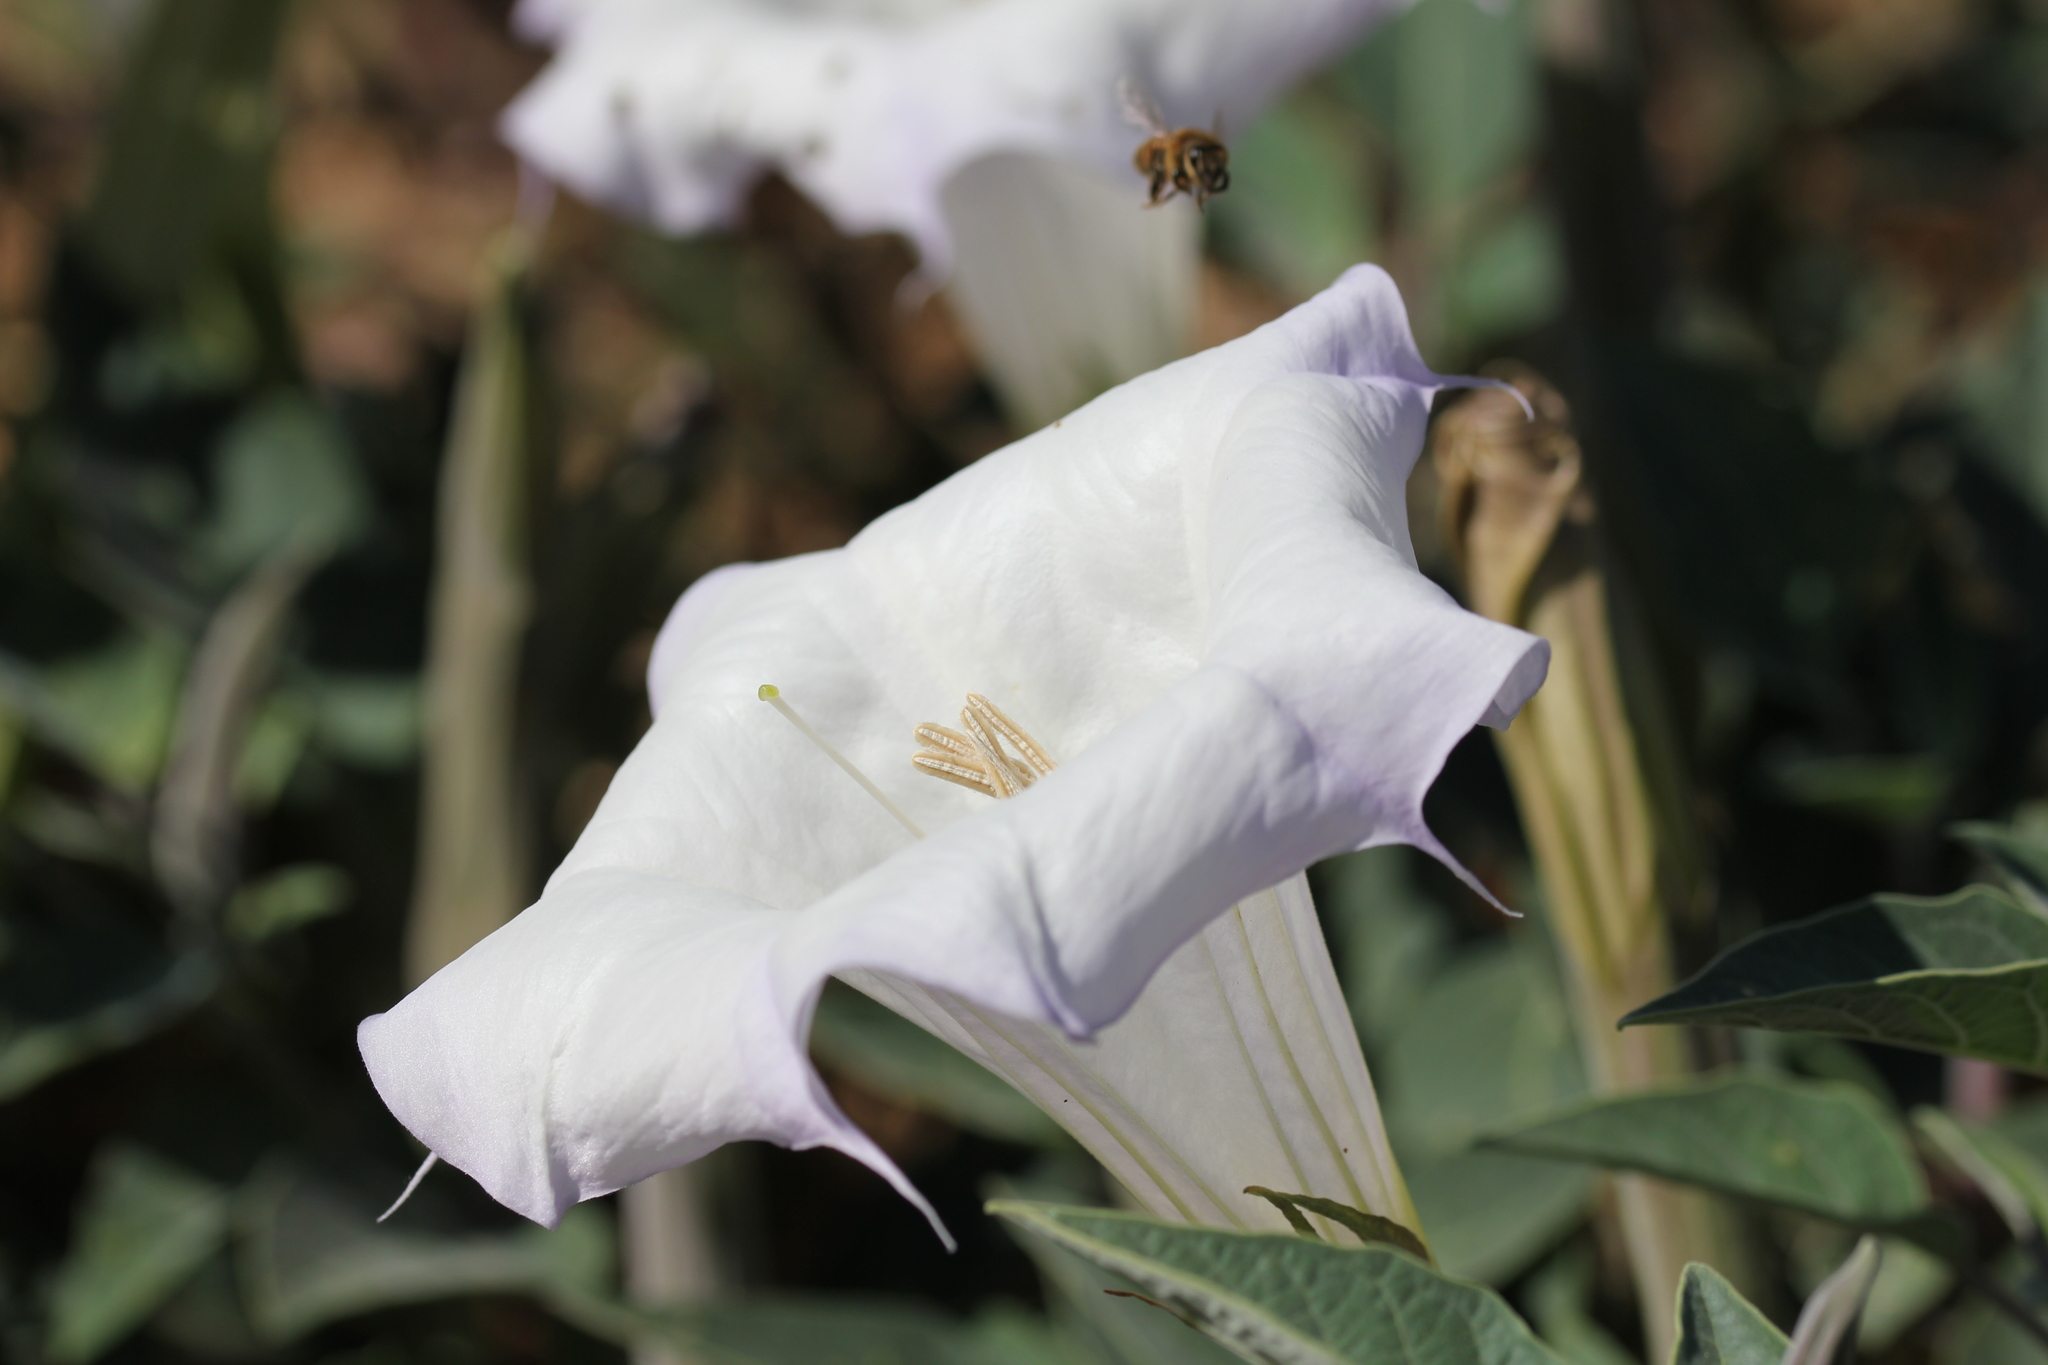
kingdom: Plantae
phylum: Tracheophyta
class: Magnoliopsida
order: Solanales
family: Solanaceae
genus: Datura
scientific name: Datura wrightii
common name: Sacred thorn-apple
